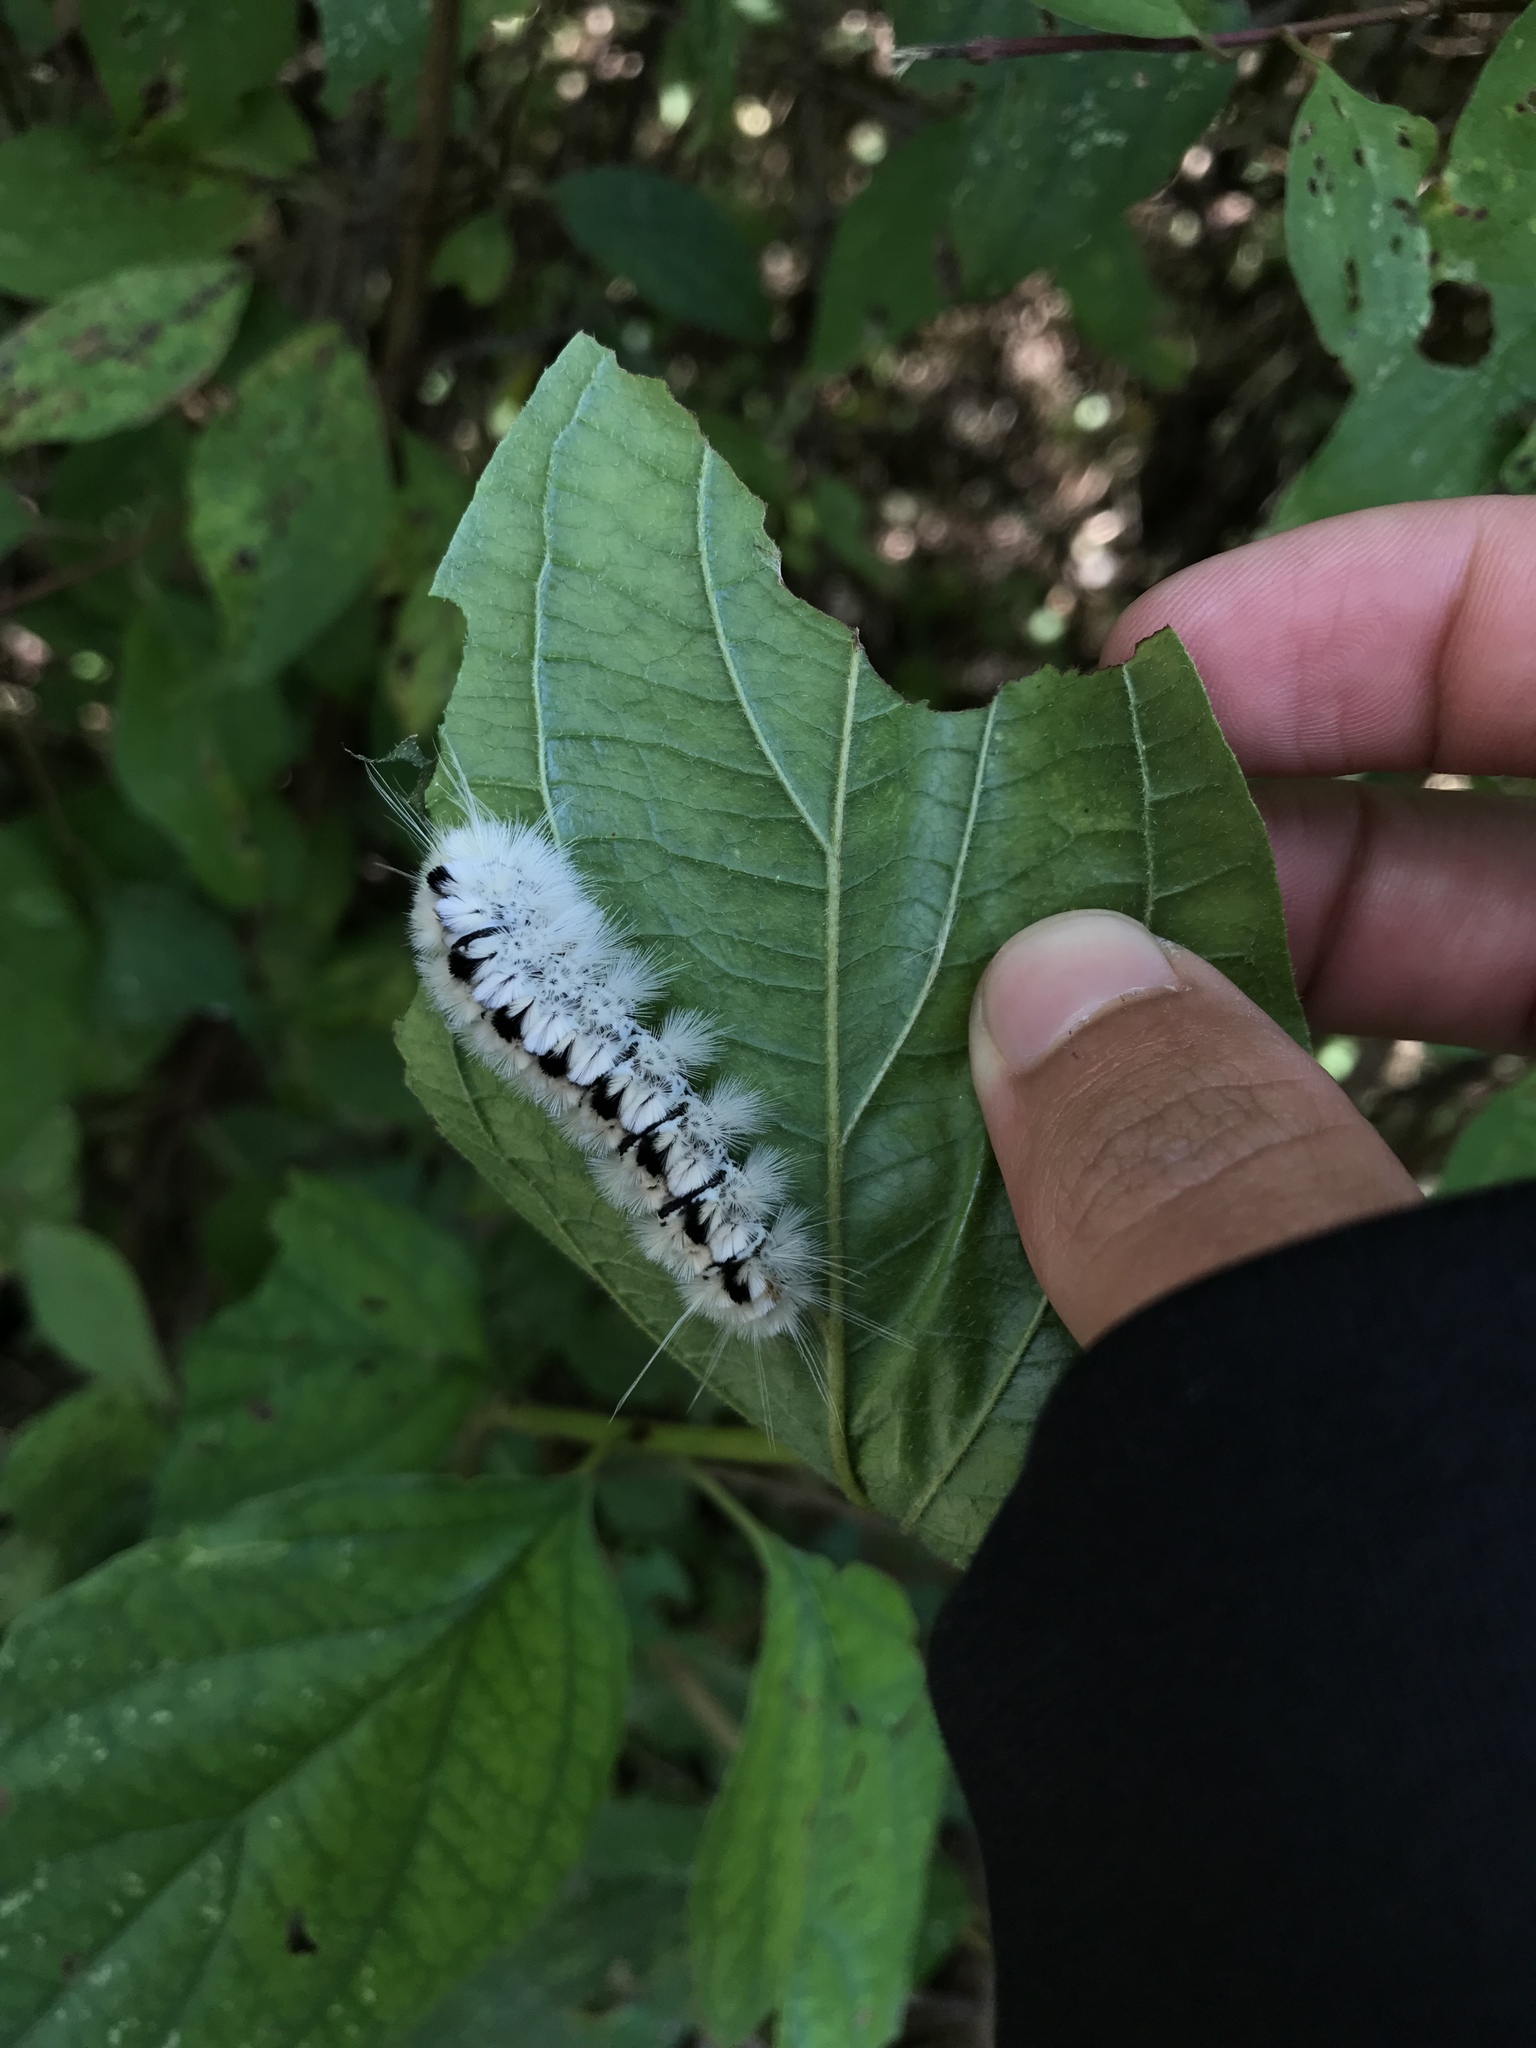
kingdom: Animalia
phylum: Arthropoda
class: Insecta
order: Lepidoptera
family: Erebidae
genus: Lophocampa
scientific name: Lophocampa caryae
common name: Hickory tussock moth
